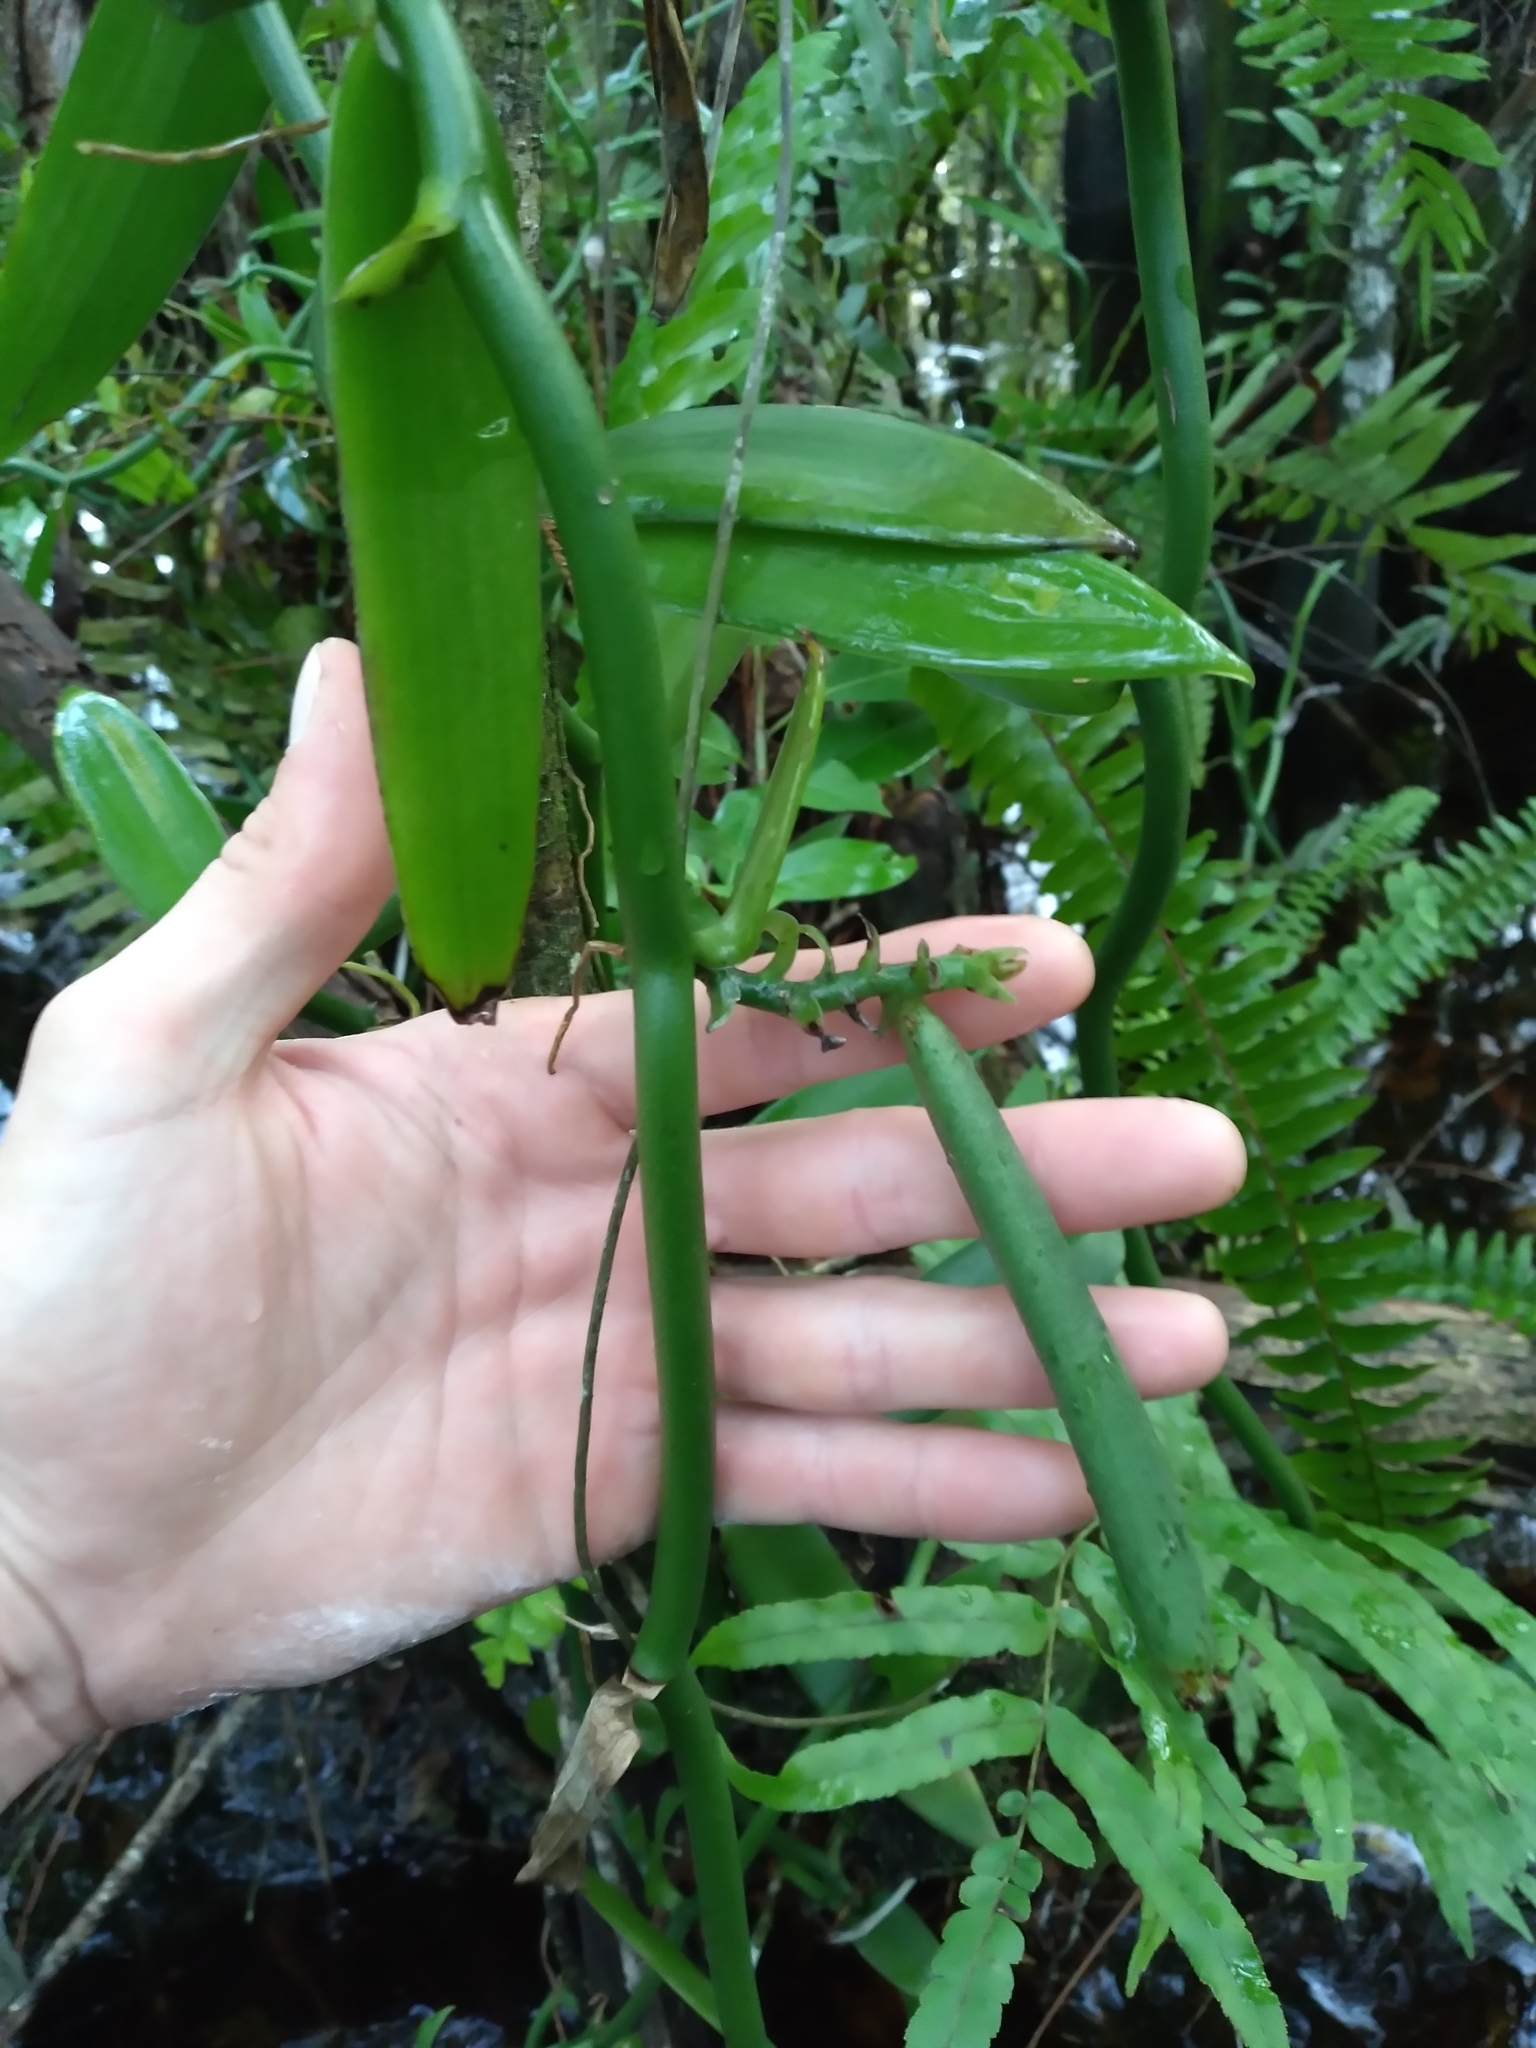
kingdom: Plantae
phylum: Tracheophyta
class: Liliopsida
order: Asparagales
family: Orchidaceae
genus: Vanilla
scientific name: Vanilla phaeantha
